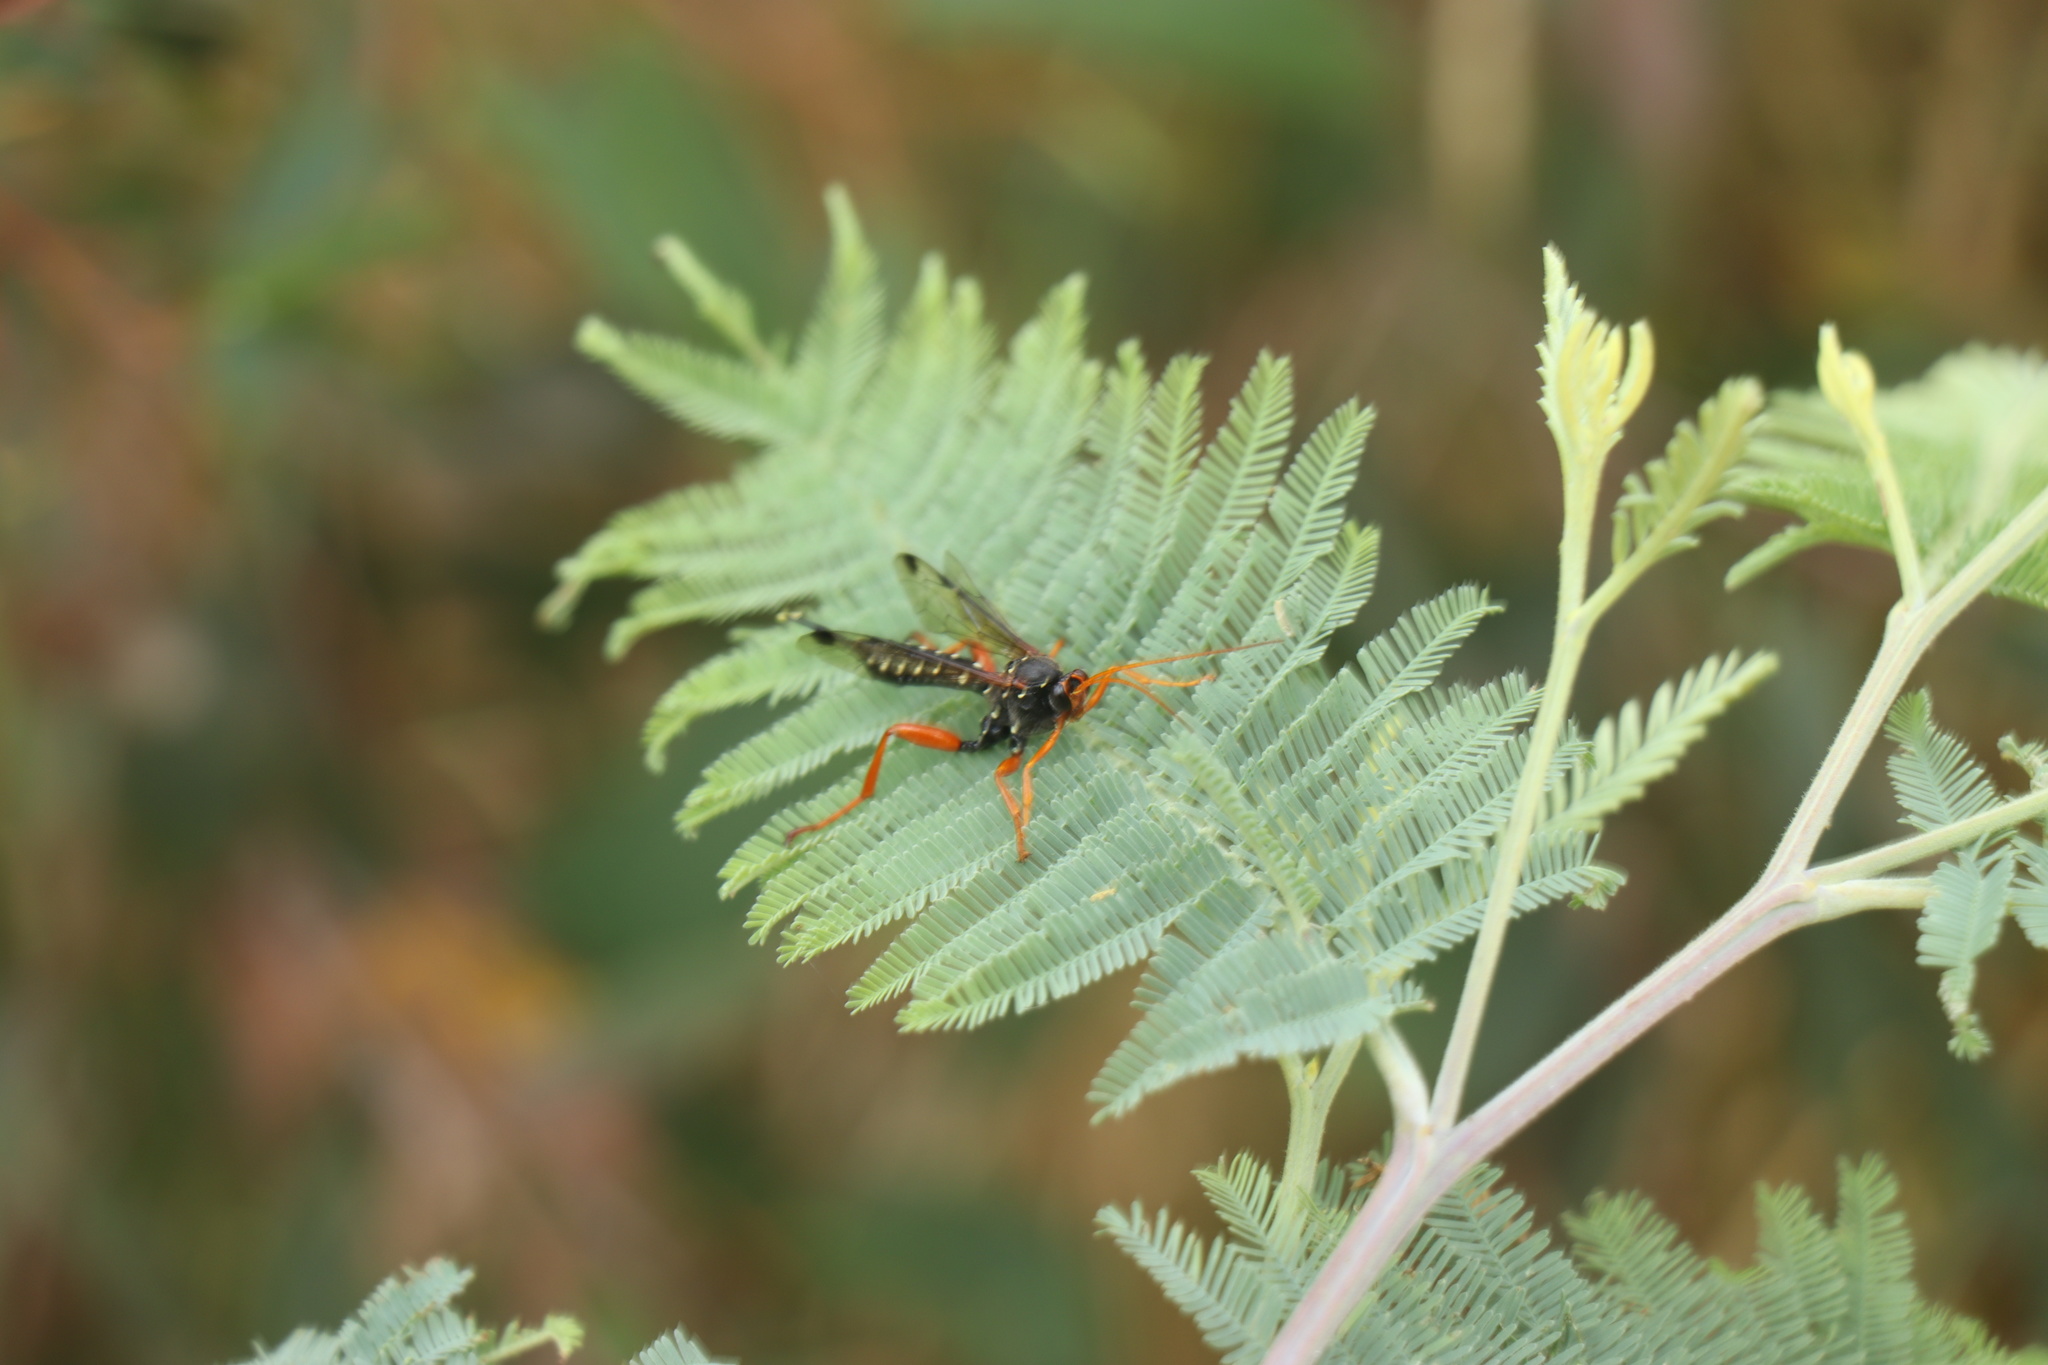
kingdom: Animalia
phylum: Arthropoda
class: Insecta
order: Hymenoptera
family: Ichneumonidae
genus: Echthromorpha
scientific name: Echthromorpha intricatoria
